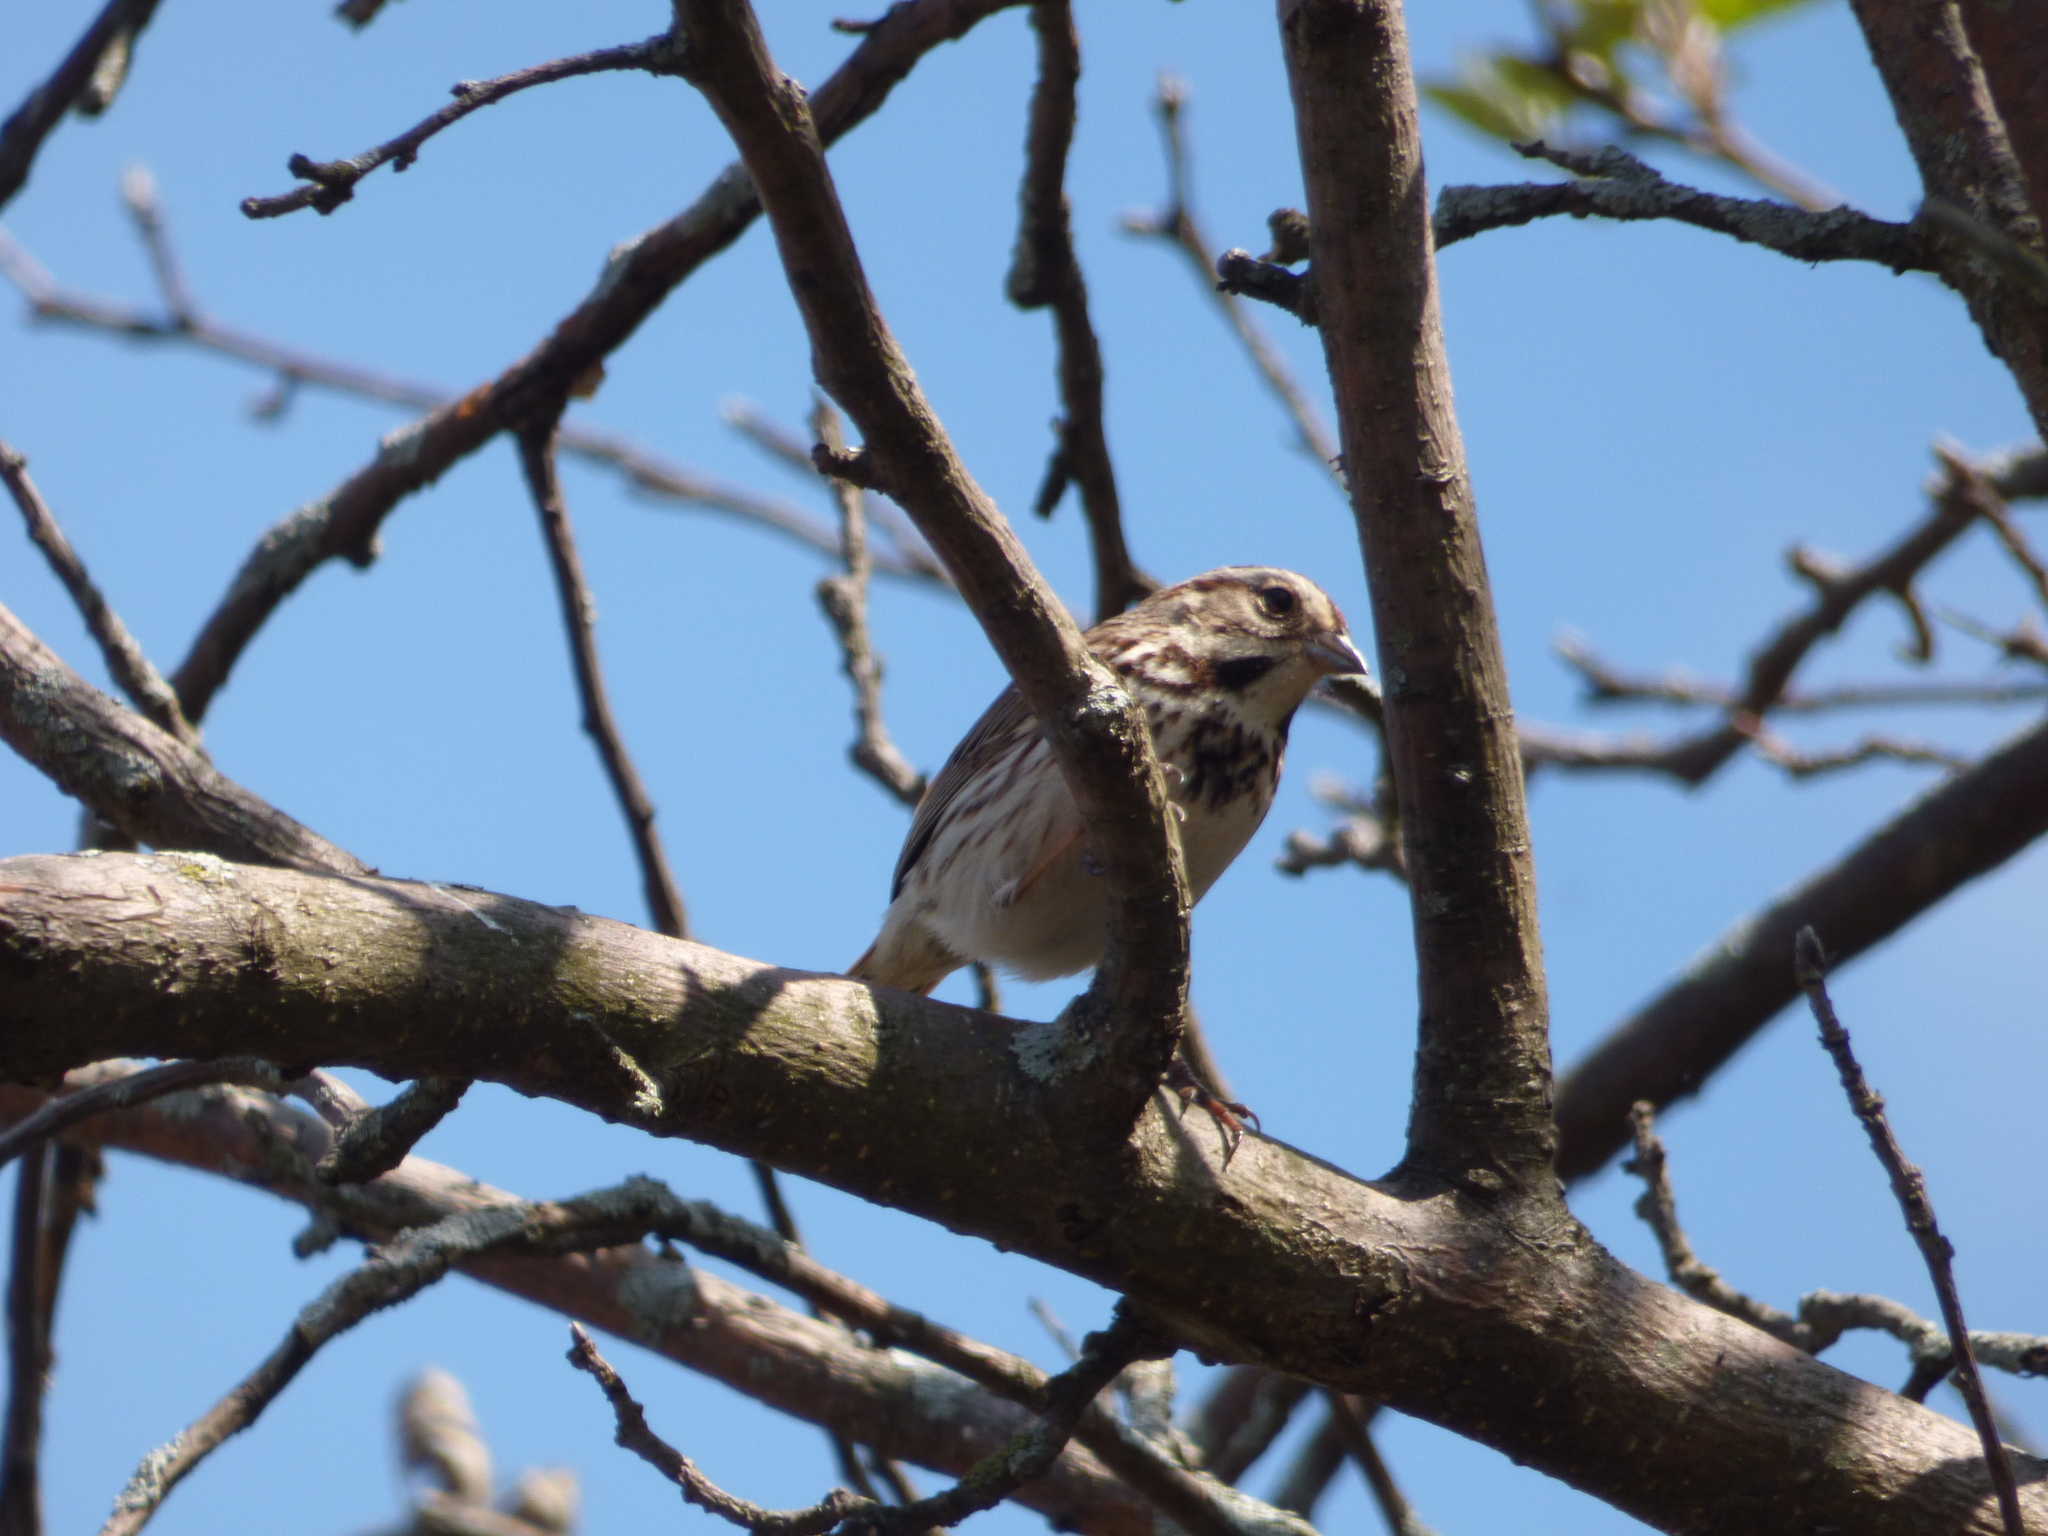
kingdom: Animalia
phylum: Chordata
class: Aves
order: Passeriformes
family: Passerellidae
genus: Melospiza
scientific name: Melospiza melodia
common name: Song sparrow
